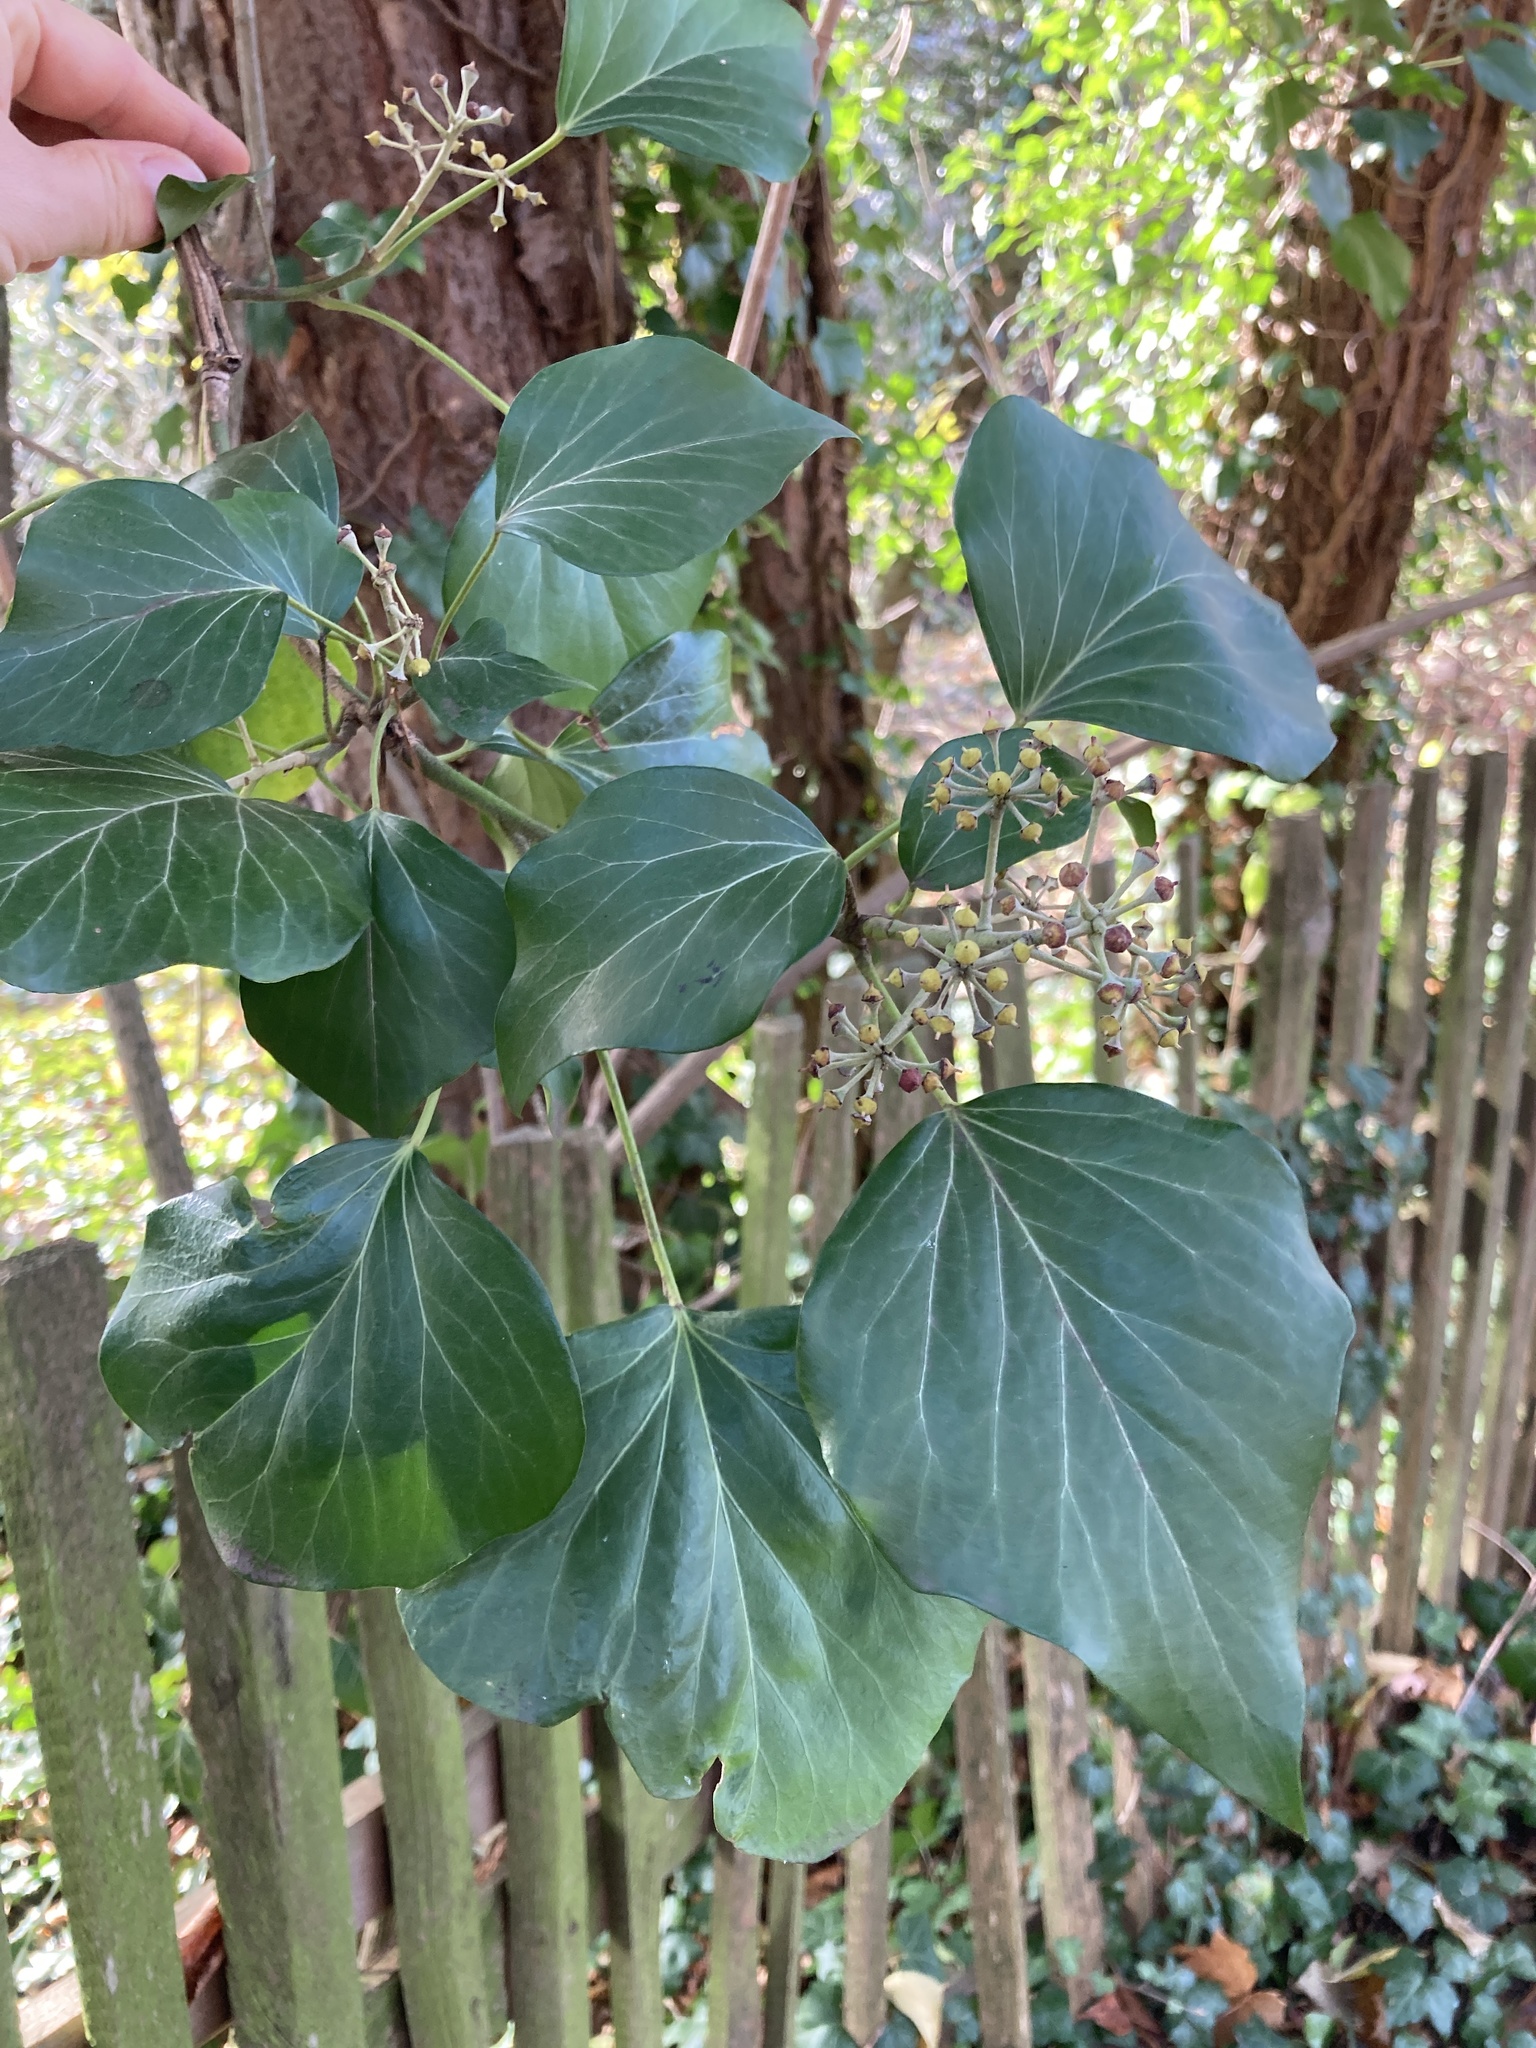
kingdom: Plantae
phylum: Tracheophyta
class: Magnoliopsida
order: Apiales
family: Araliaceae
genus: Hedera
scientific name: Hedera helix
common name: Ivy
